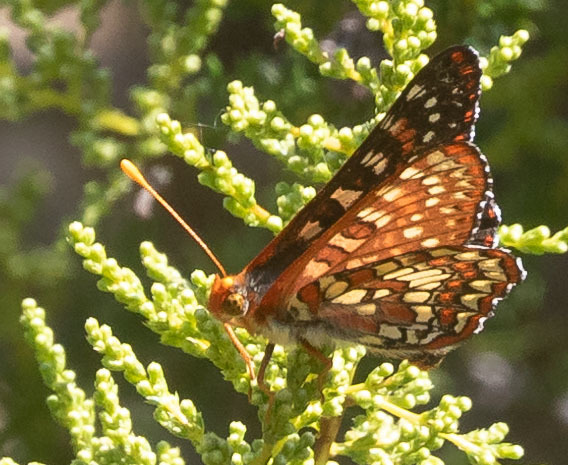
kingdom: Animalia
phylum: Arthropoda
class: Insecta
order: Lepidoptera
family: Nymphalidae
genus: Occidryas
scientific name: Occidryas chalcedona
